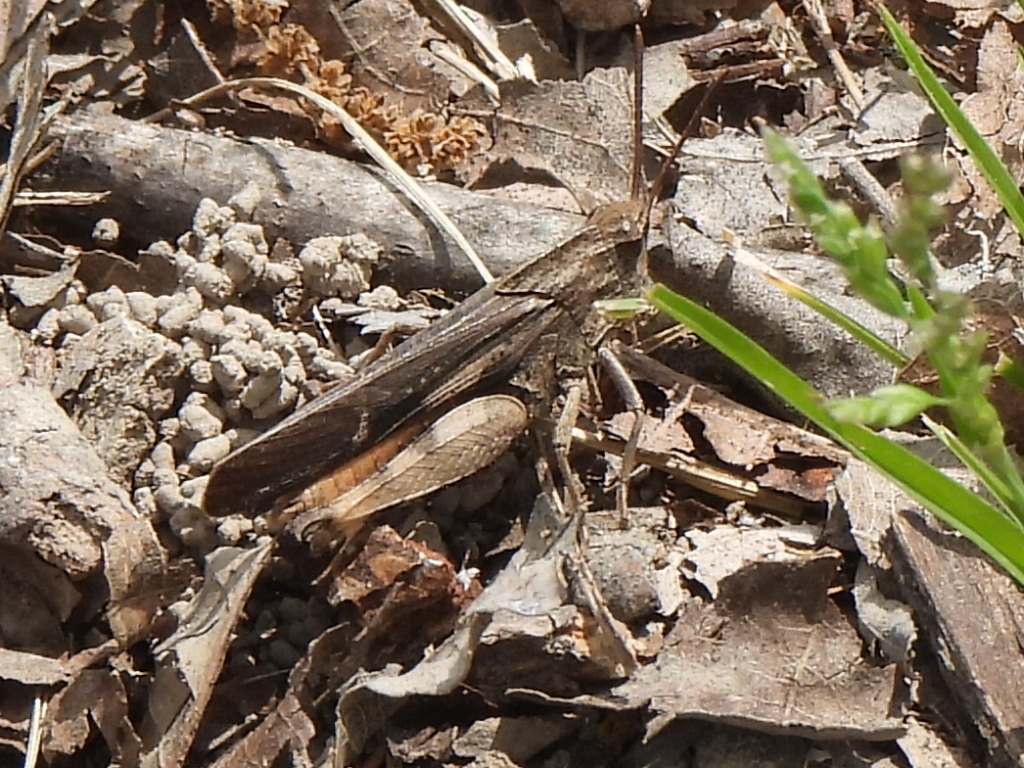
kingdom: Animalia
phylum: Arthropoda
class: Insecta
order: Orthoptera
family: Acrididae
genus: Chortophaga
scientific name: Chortophaga viridifasciata
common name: Green-striped grasshopper
